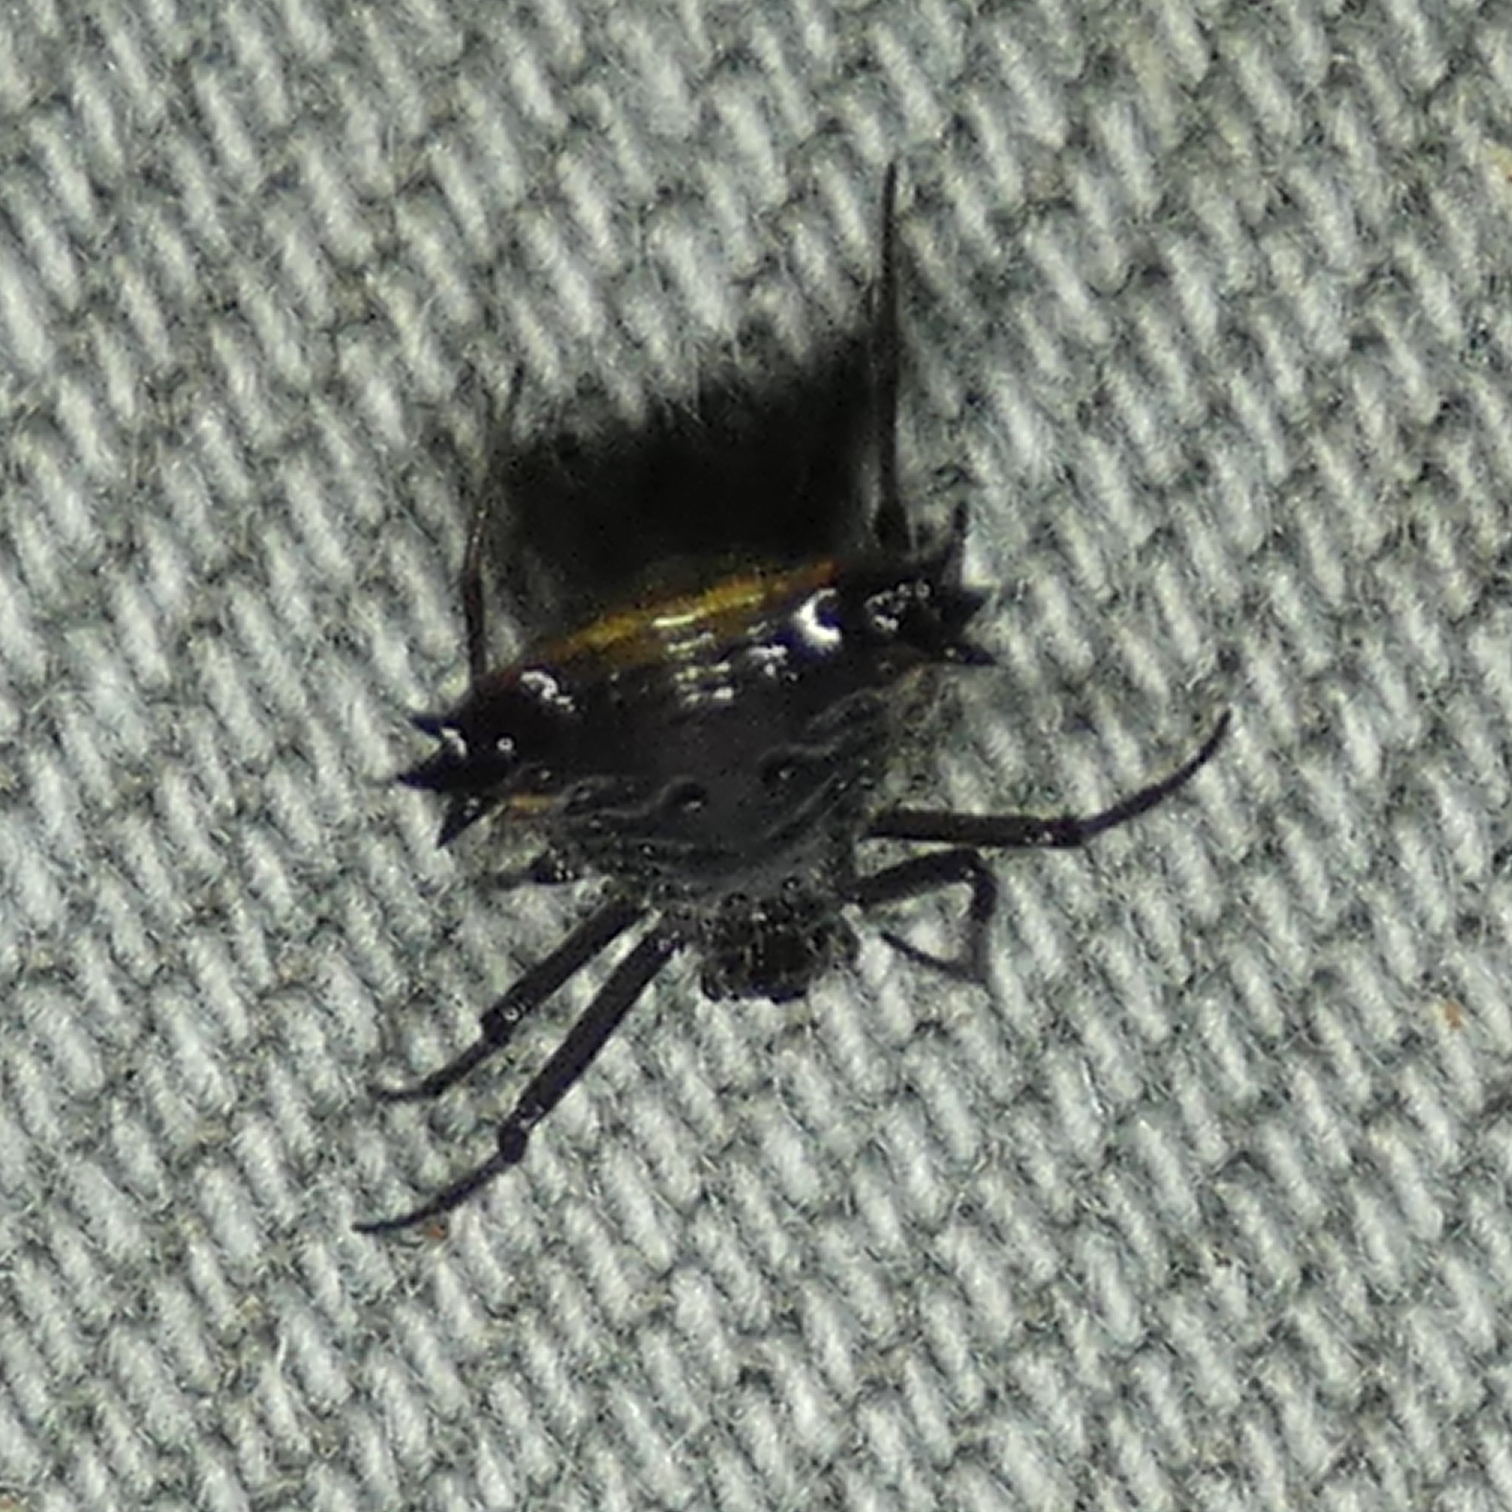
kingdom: Animalia
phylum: Arthropoda
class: Arachnida
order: Araneae
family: Araneidae
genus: Micrathena
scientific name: Micrathena triangularis
